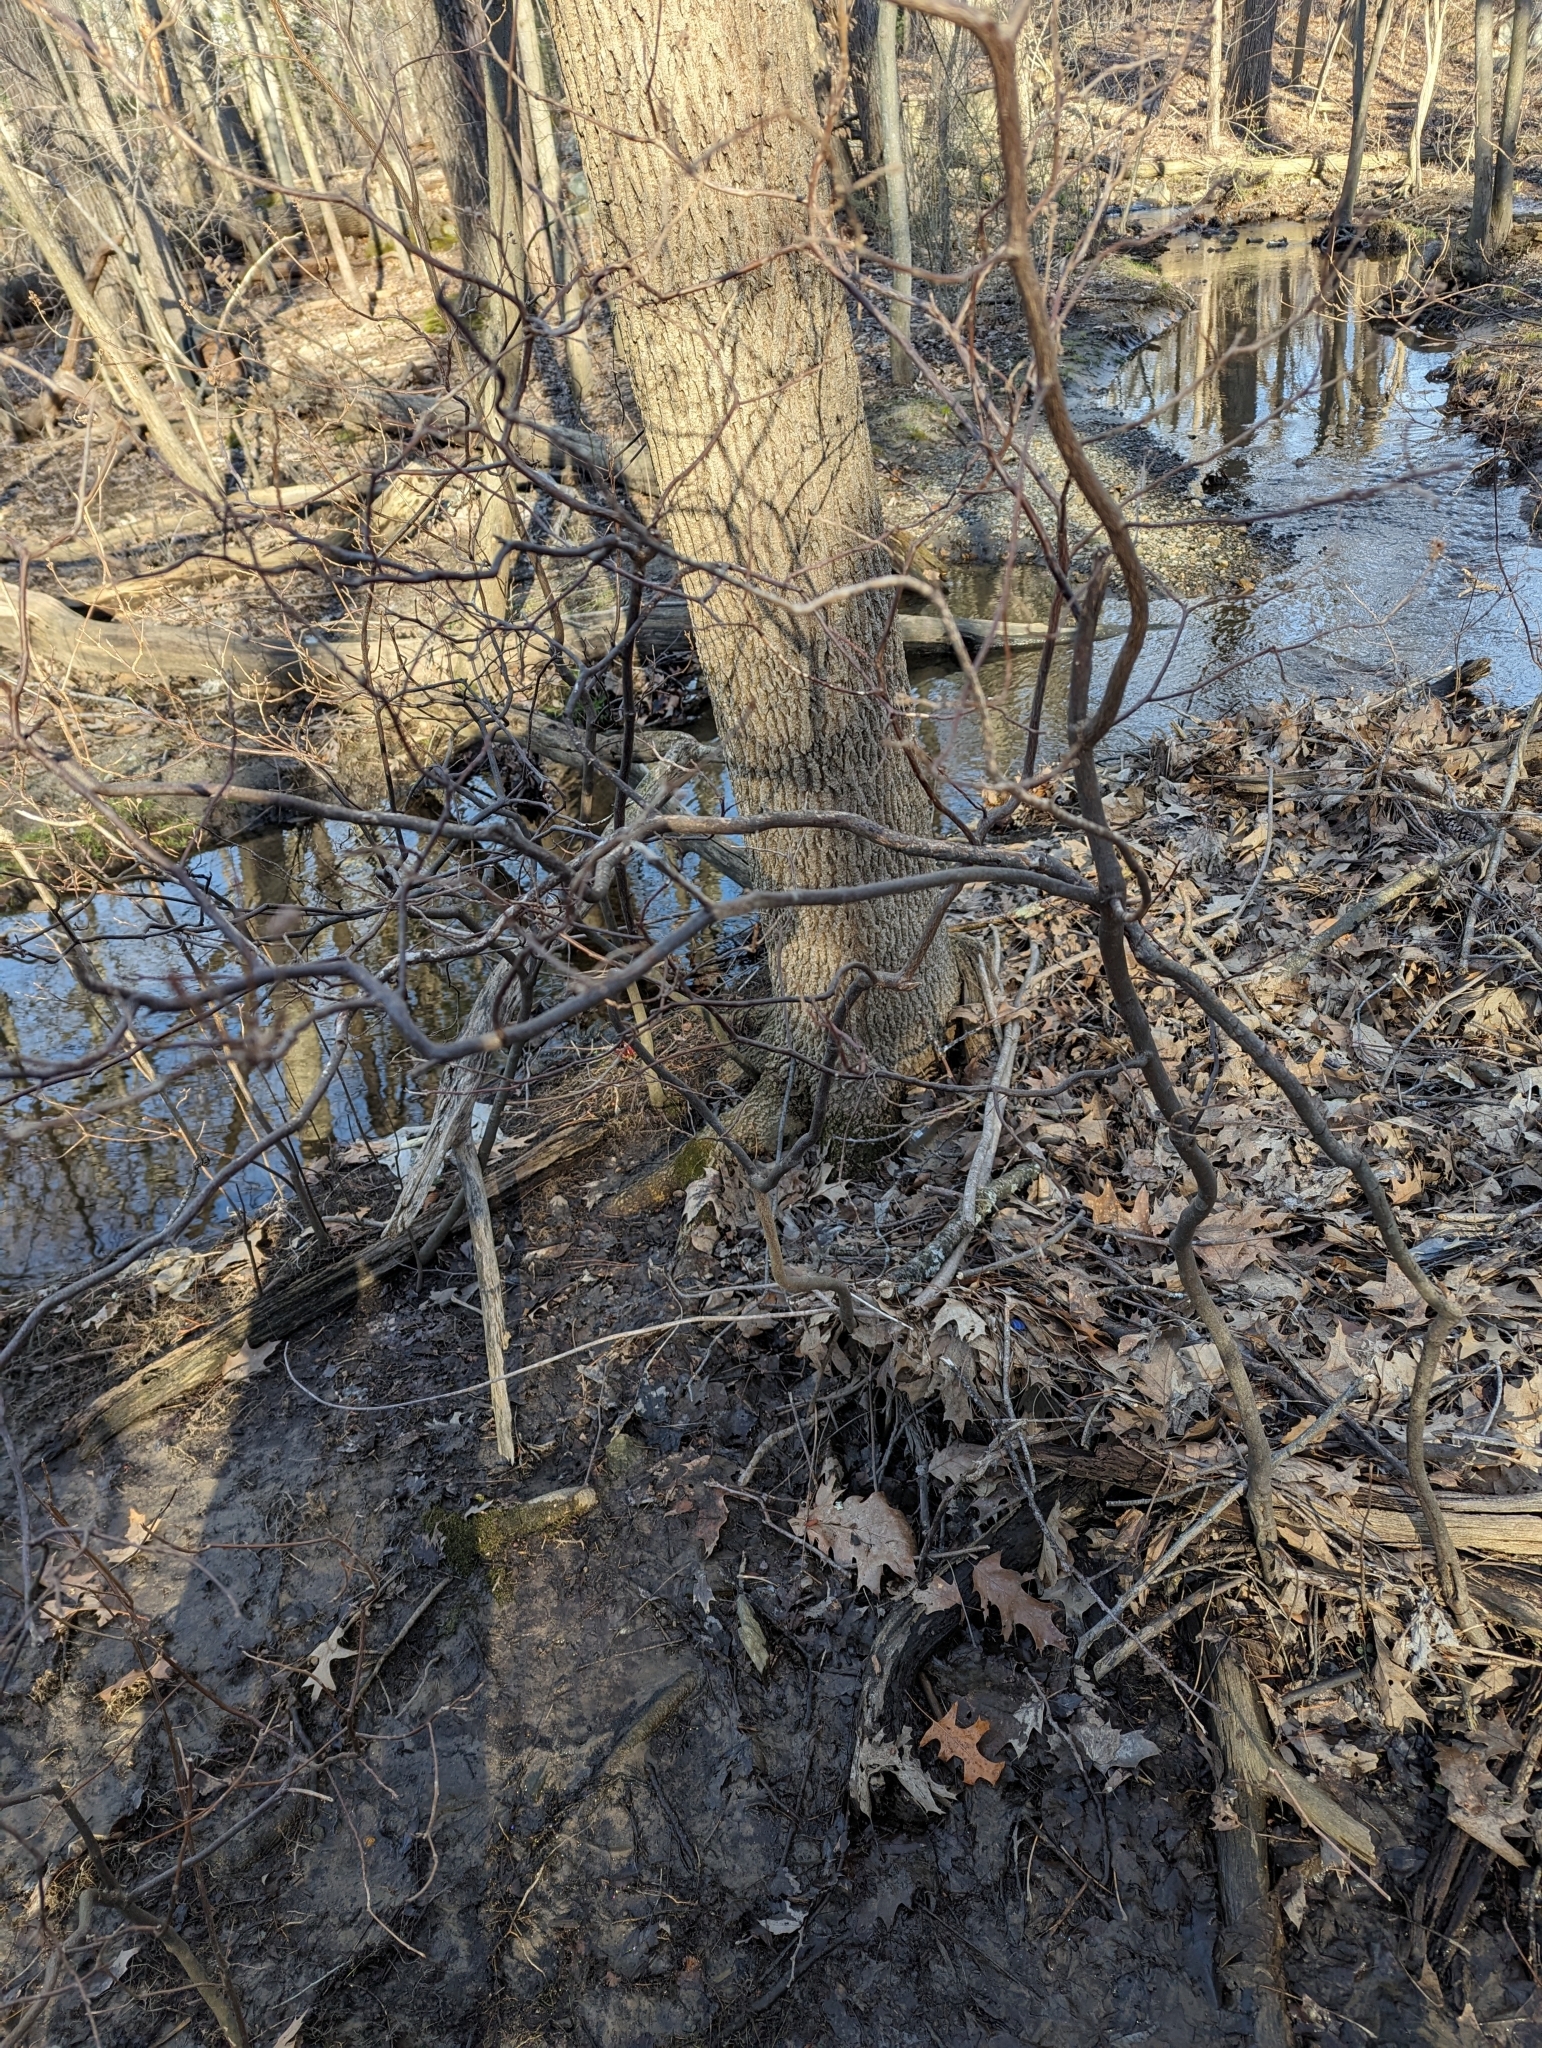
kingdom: Plantae
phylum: Tracheophyta
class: Magnoliopsida
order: Ericales
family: Clethraceae
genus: Clethra
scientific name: Clethra alnifolia
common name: Sweet pepperbush
